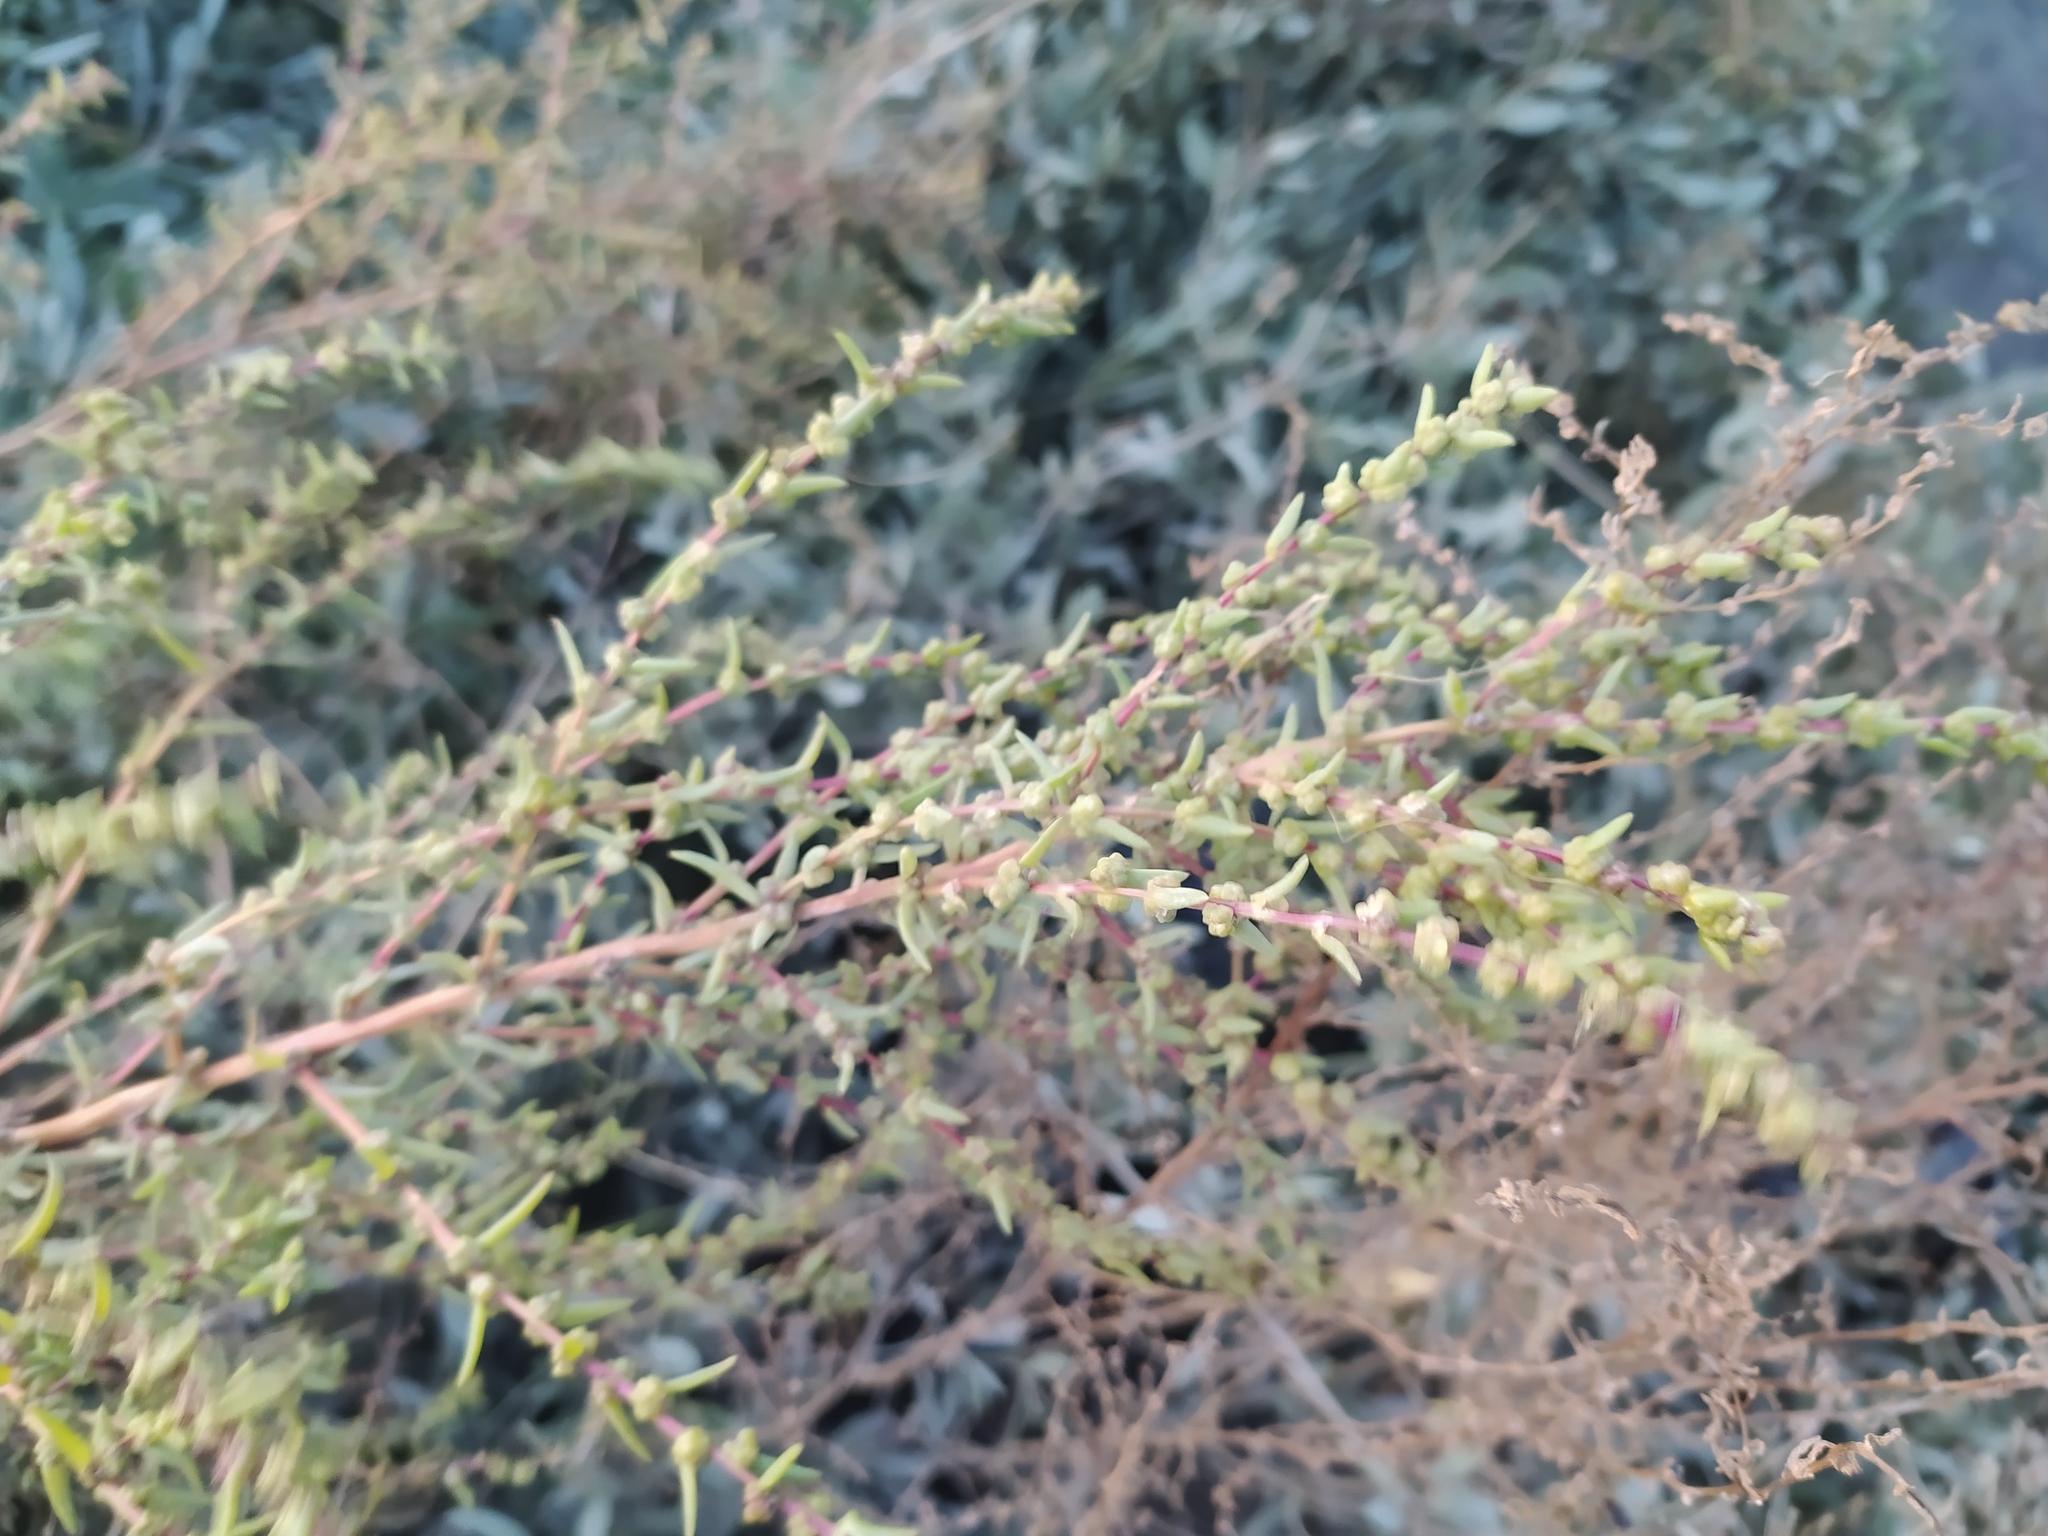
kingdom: Plantae
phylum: Tracheophyta
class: Magnoliopsida
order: Caryophyllales
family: Amaranthaceae
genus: Suaeda
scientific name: Suaeda maritima
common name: Annual sea-blite
